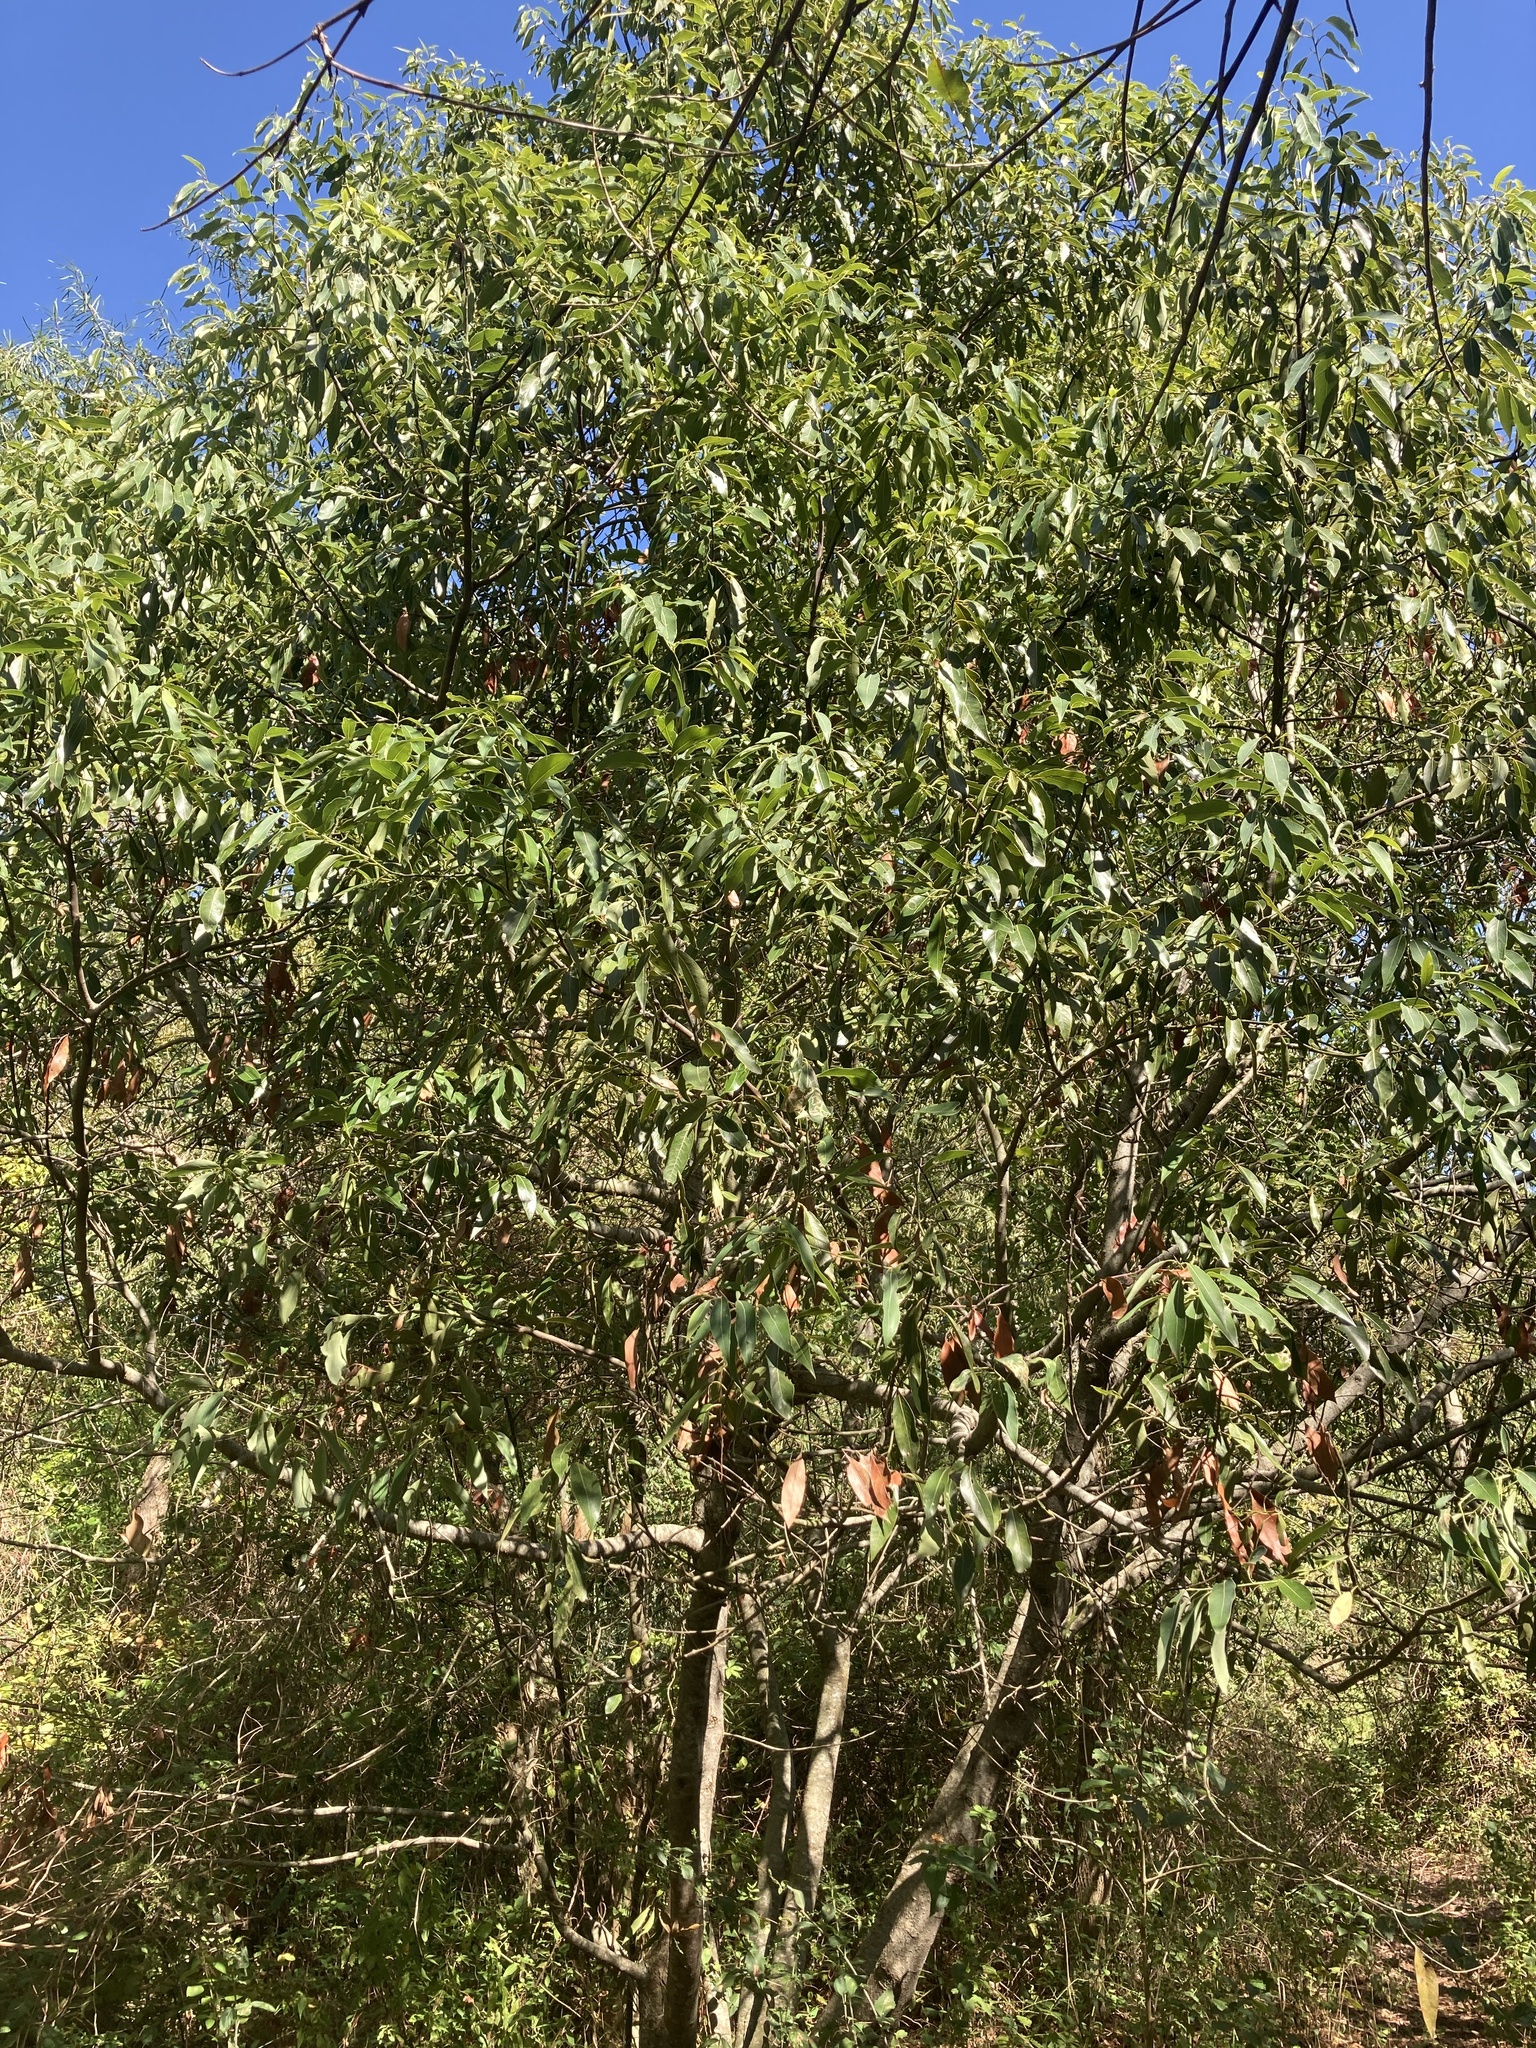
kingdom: Plantae
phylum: Tracheophyta
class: Magnoliopsida
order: Laurales
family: Lauraceae
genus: Ocotea
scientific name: Ocotea acutifolia
